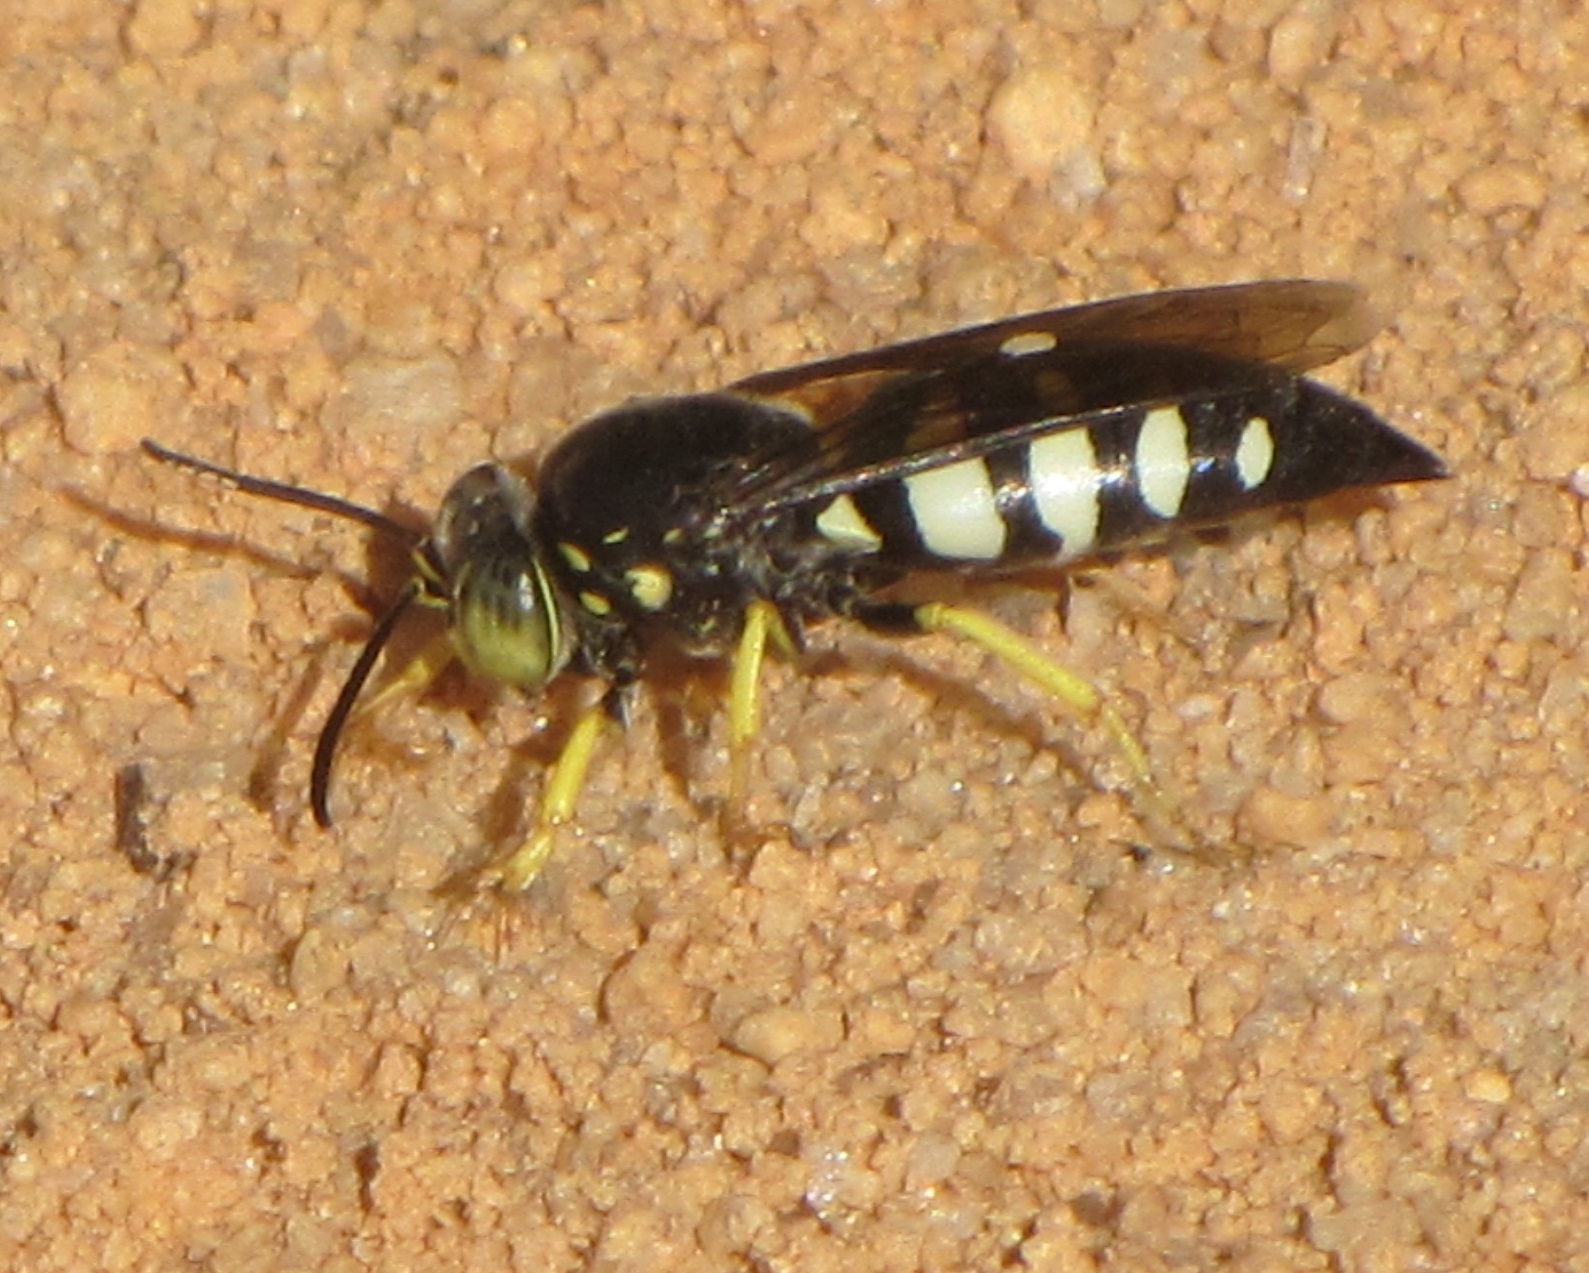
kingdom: Animalia
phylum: Arthropoda
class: Insecta
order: Hymenoptera
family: Crabronidae
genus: Bicyrtes
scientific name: Bicyrtes quadrifasciatus
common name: Four-banded stink bug hunter wasp
